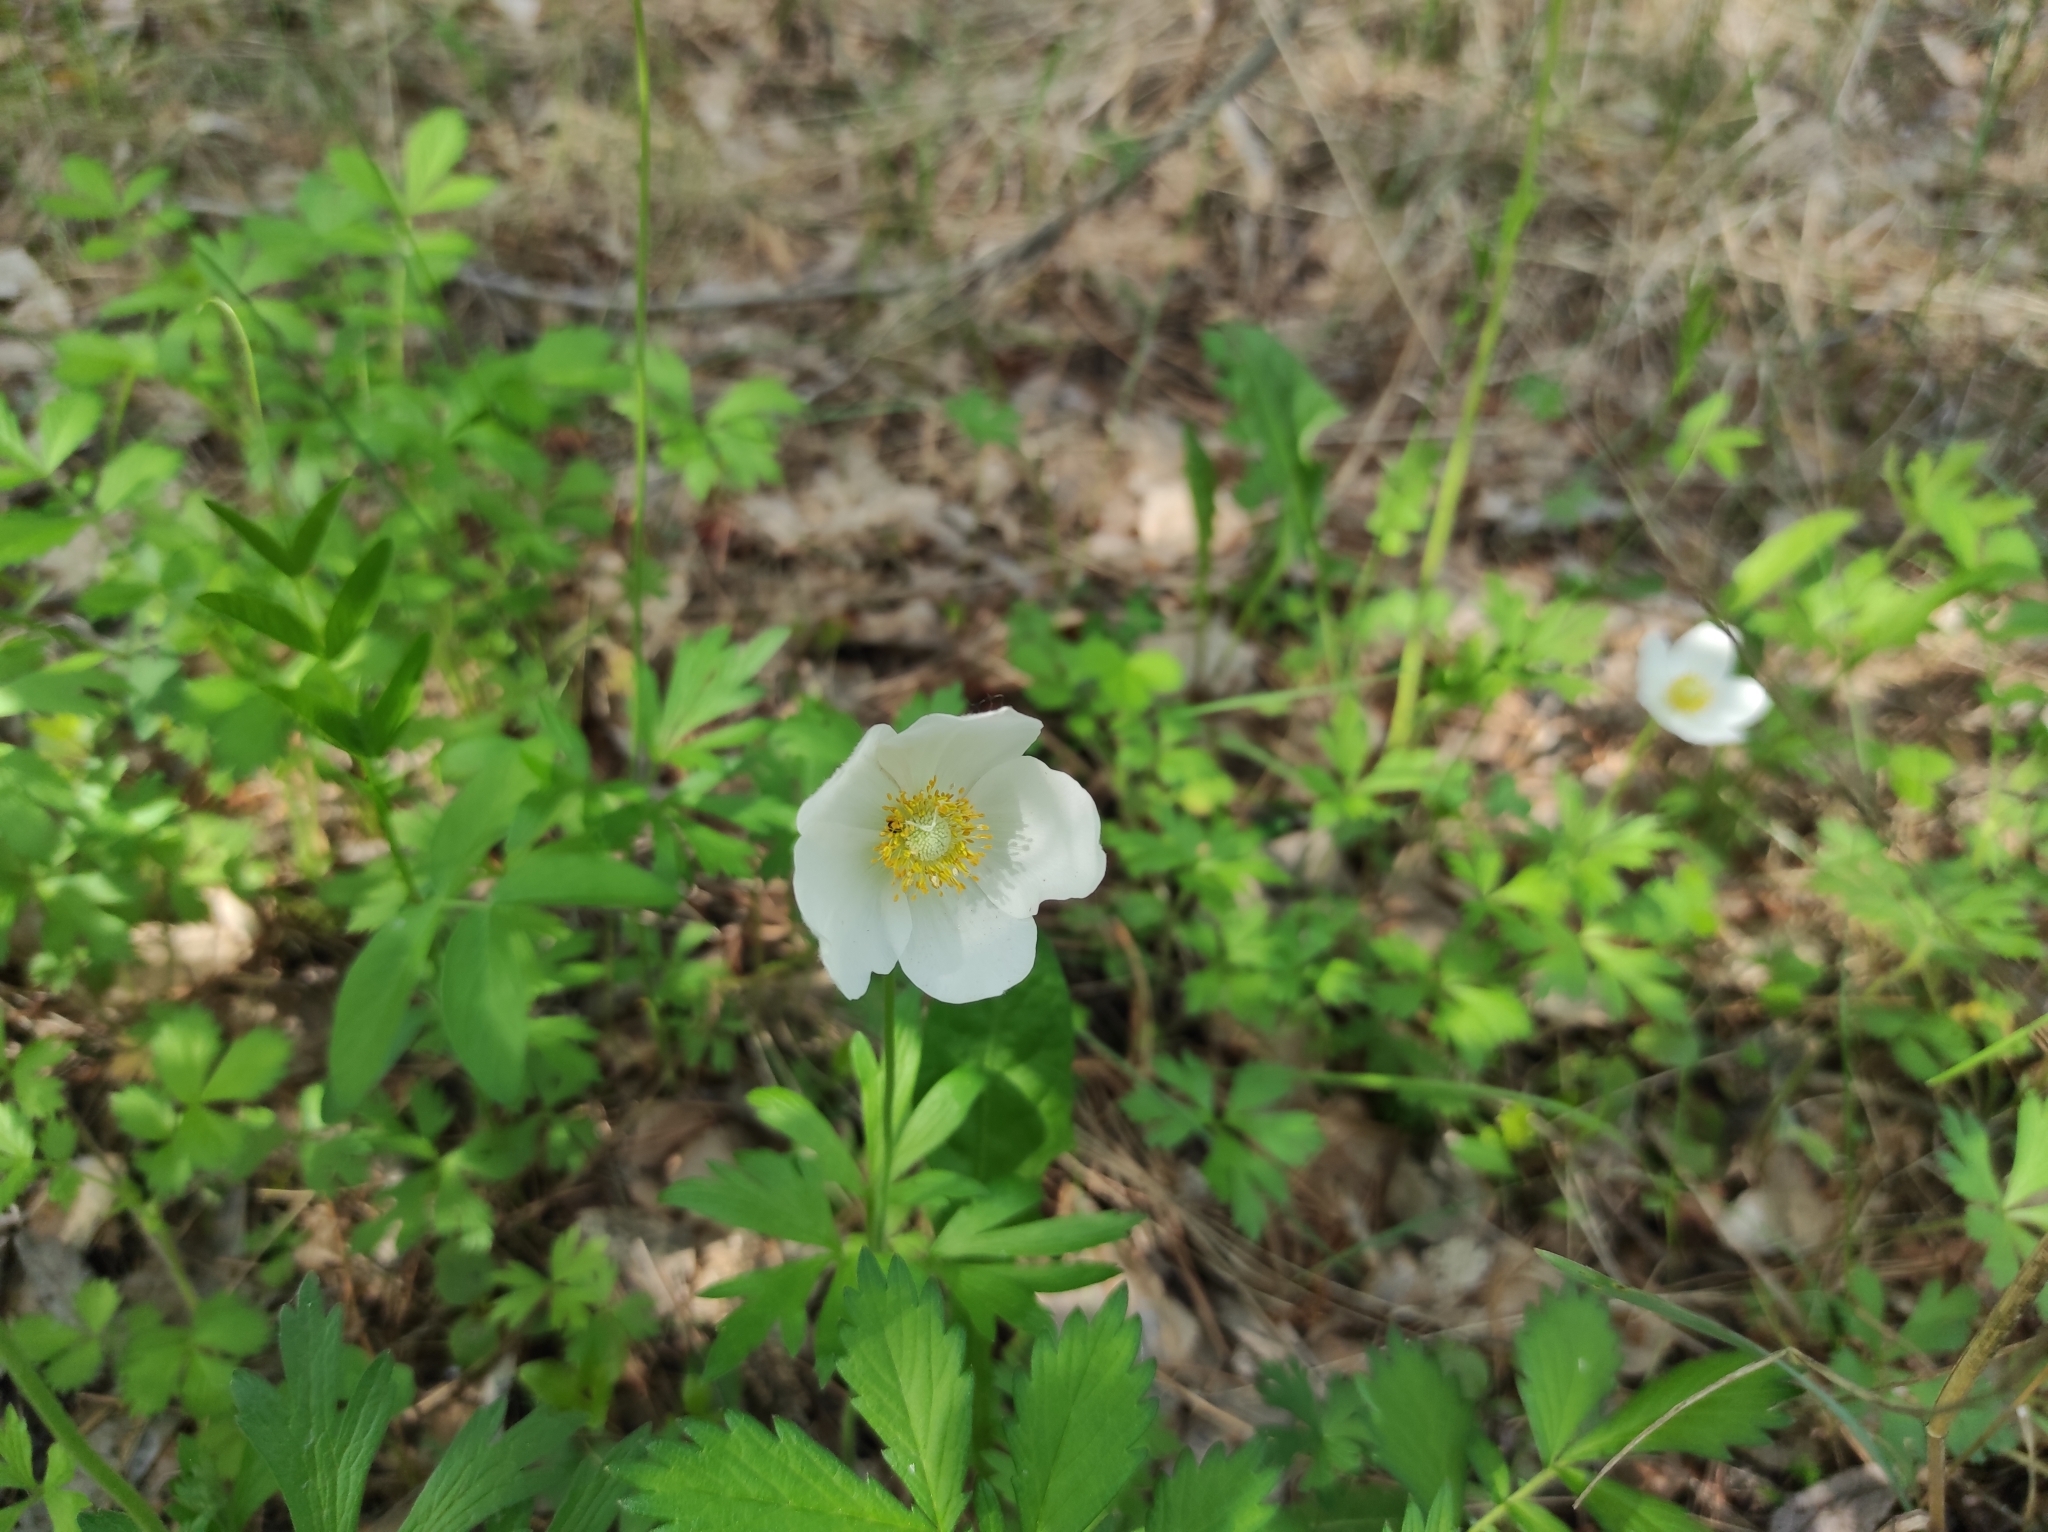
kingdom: Plantae
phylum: Tracheophyta
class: Magnoliopsida
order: Ranunculales
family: Ranunculaceae
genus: Anemone
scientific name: Anemone sylvestris
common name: Snowdrop anemone
